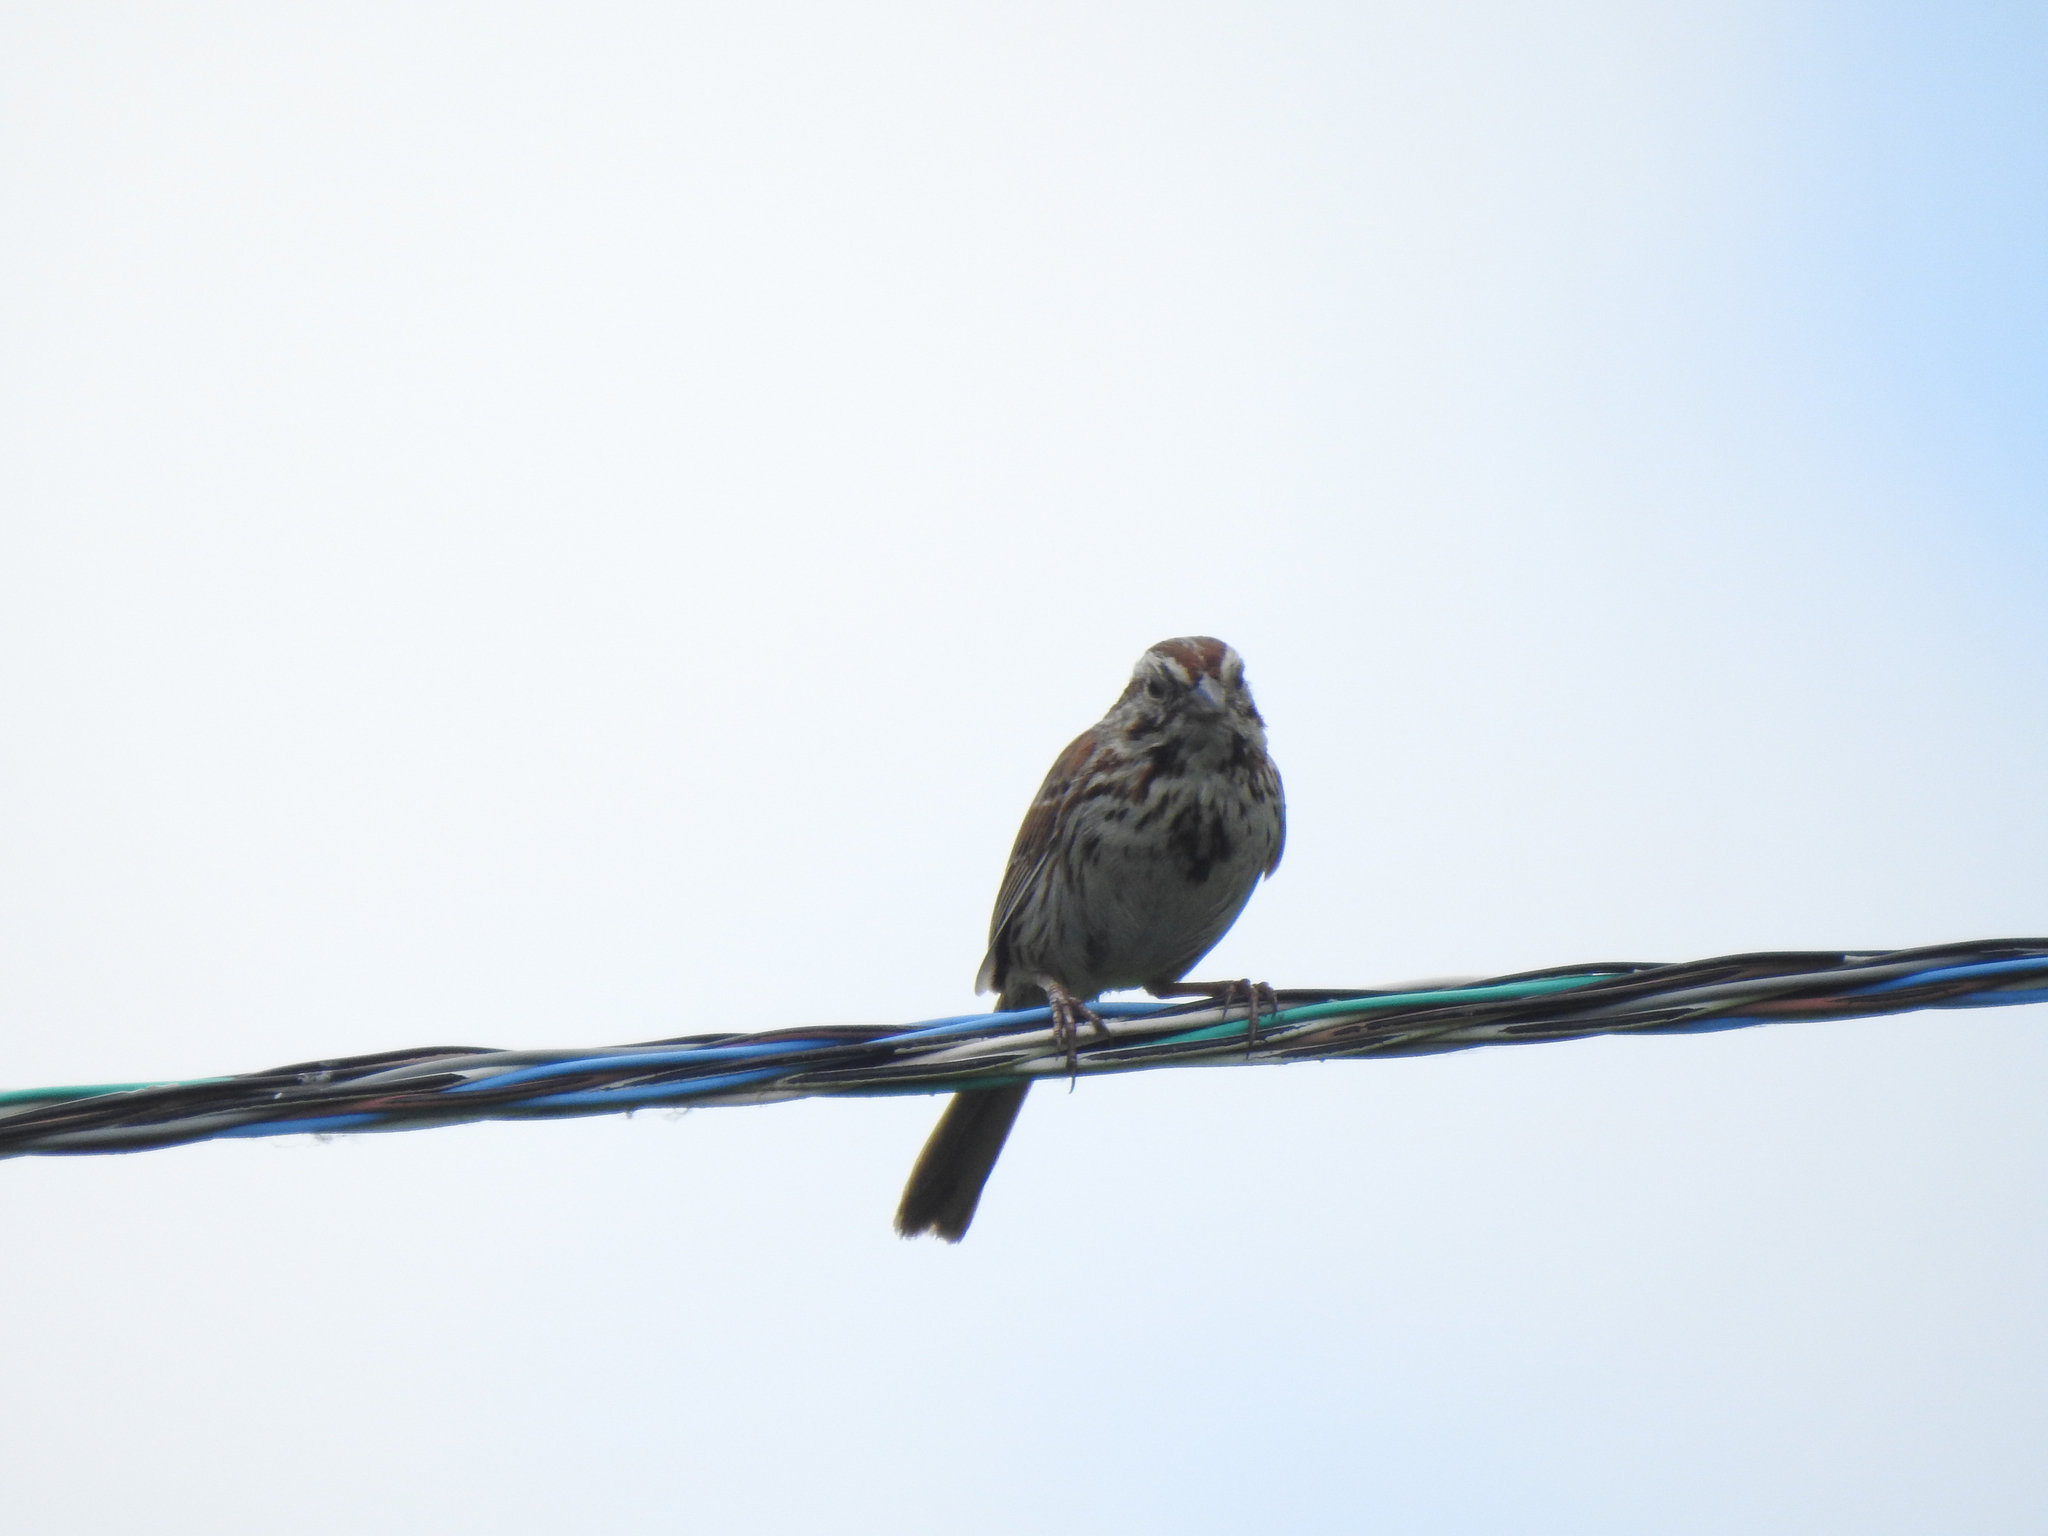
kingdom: Animalia
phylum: Chordata
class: Aves
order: Passeriformes
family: Passerellidae
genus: Melospiza
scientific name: Melospiza melodia
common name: Song sparrow
